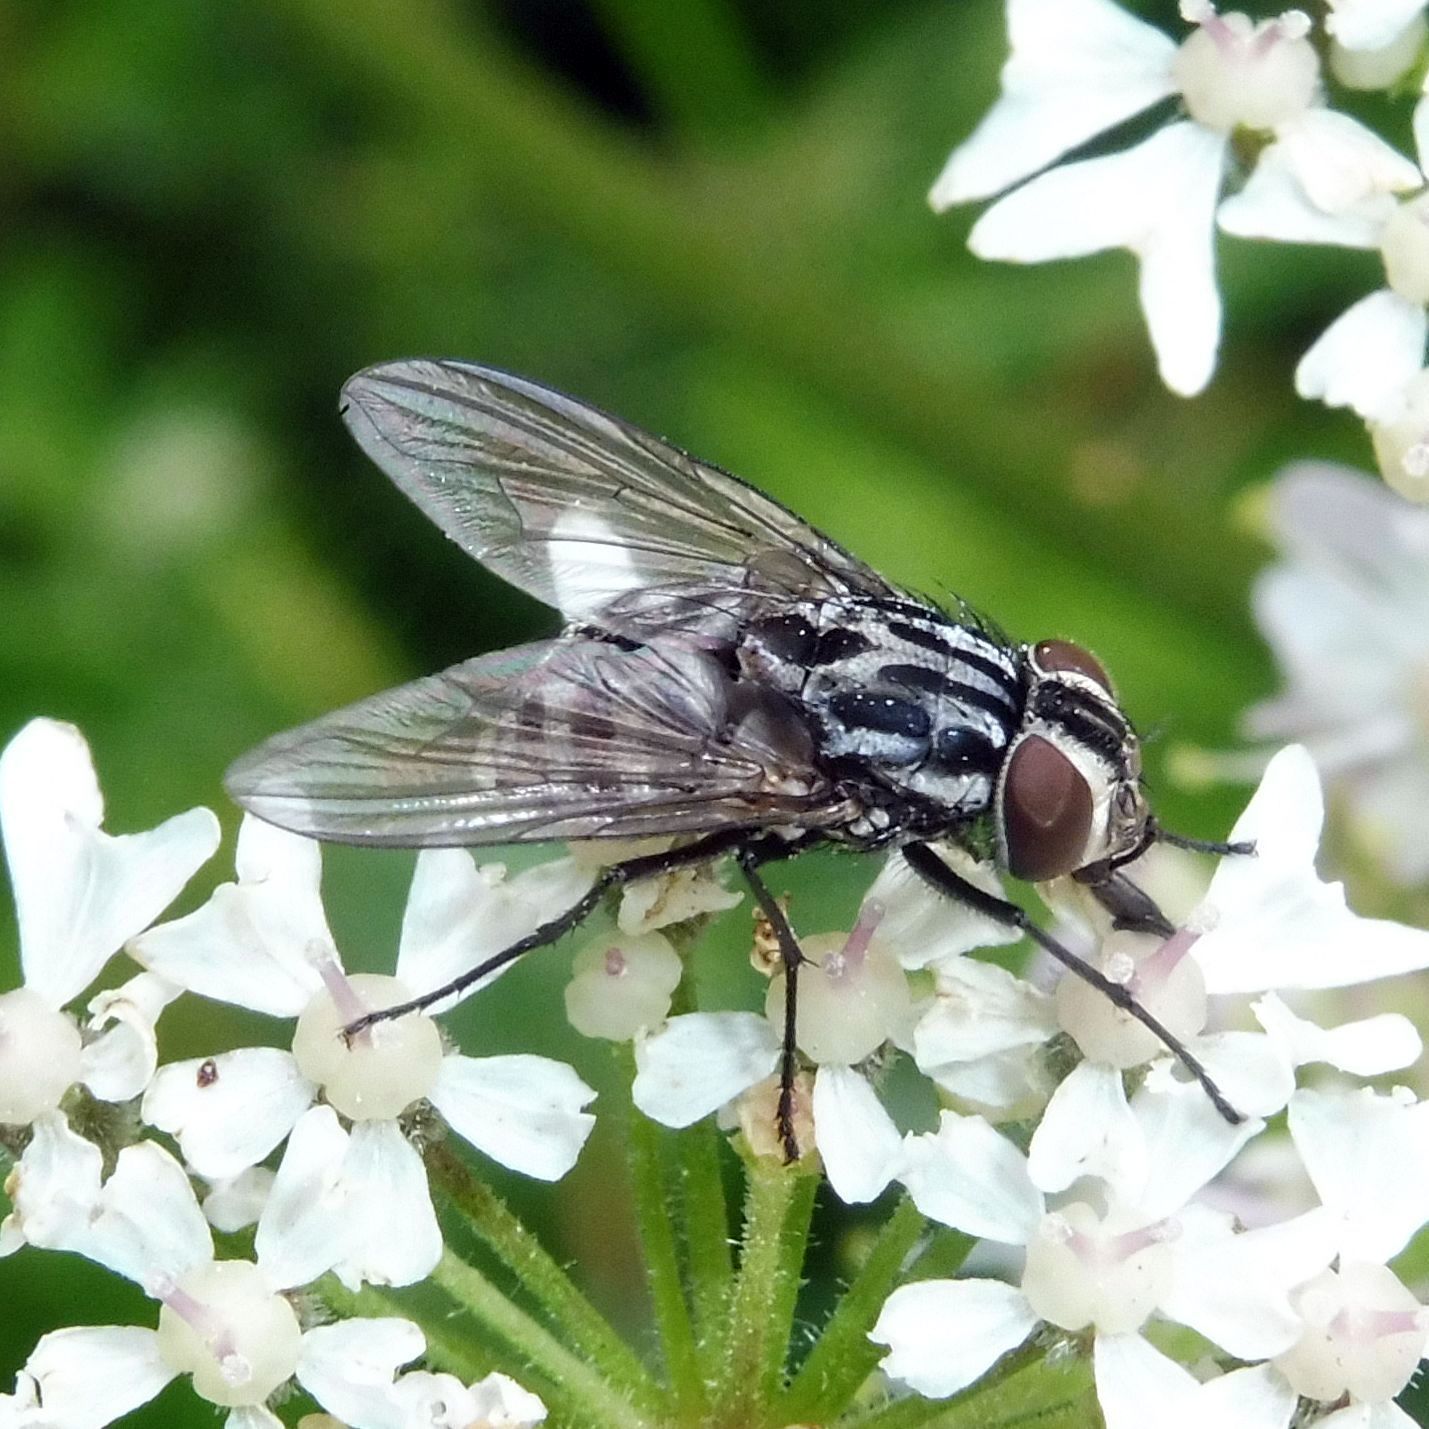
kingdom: Animalia
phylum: Arthropoda
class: Insecta
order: Diptera
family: Muscidae
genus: Graphomya
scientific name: Graphomya maculata
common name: Muscid fly
